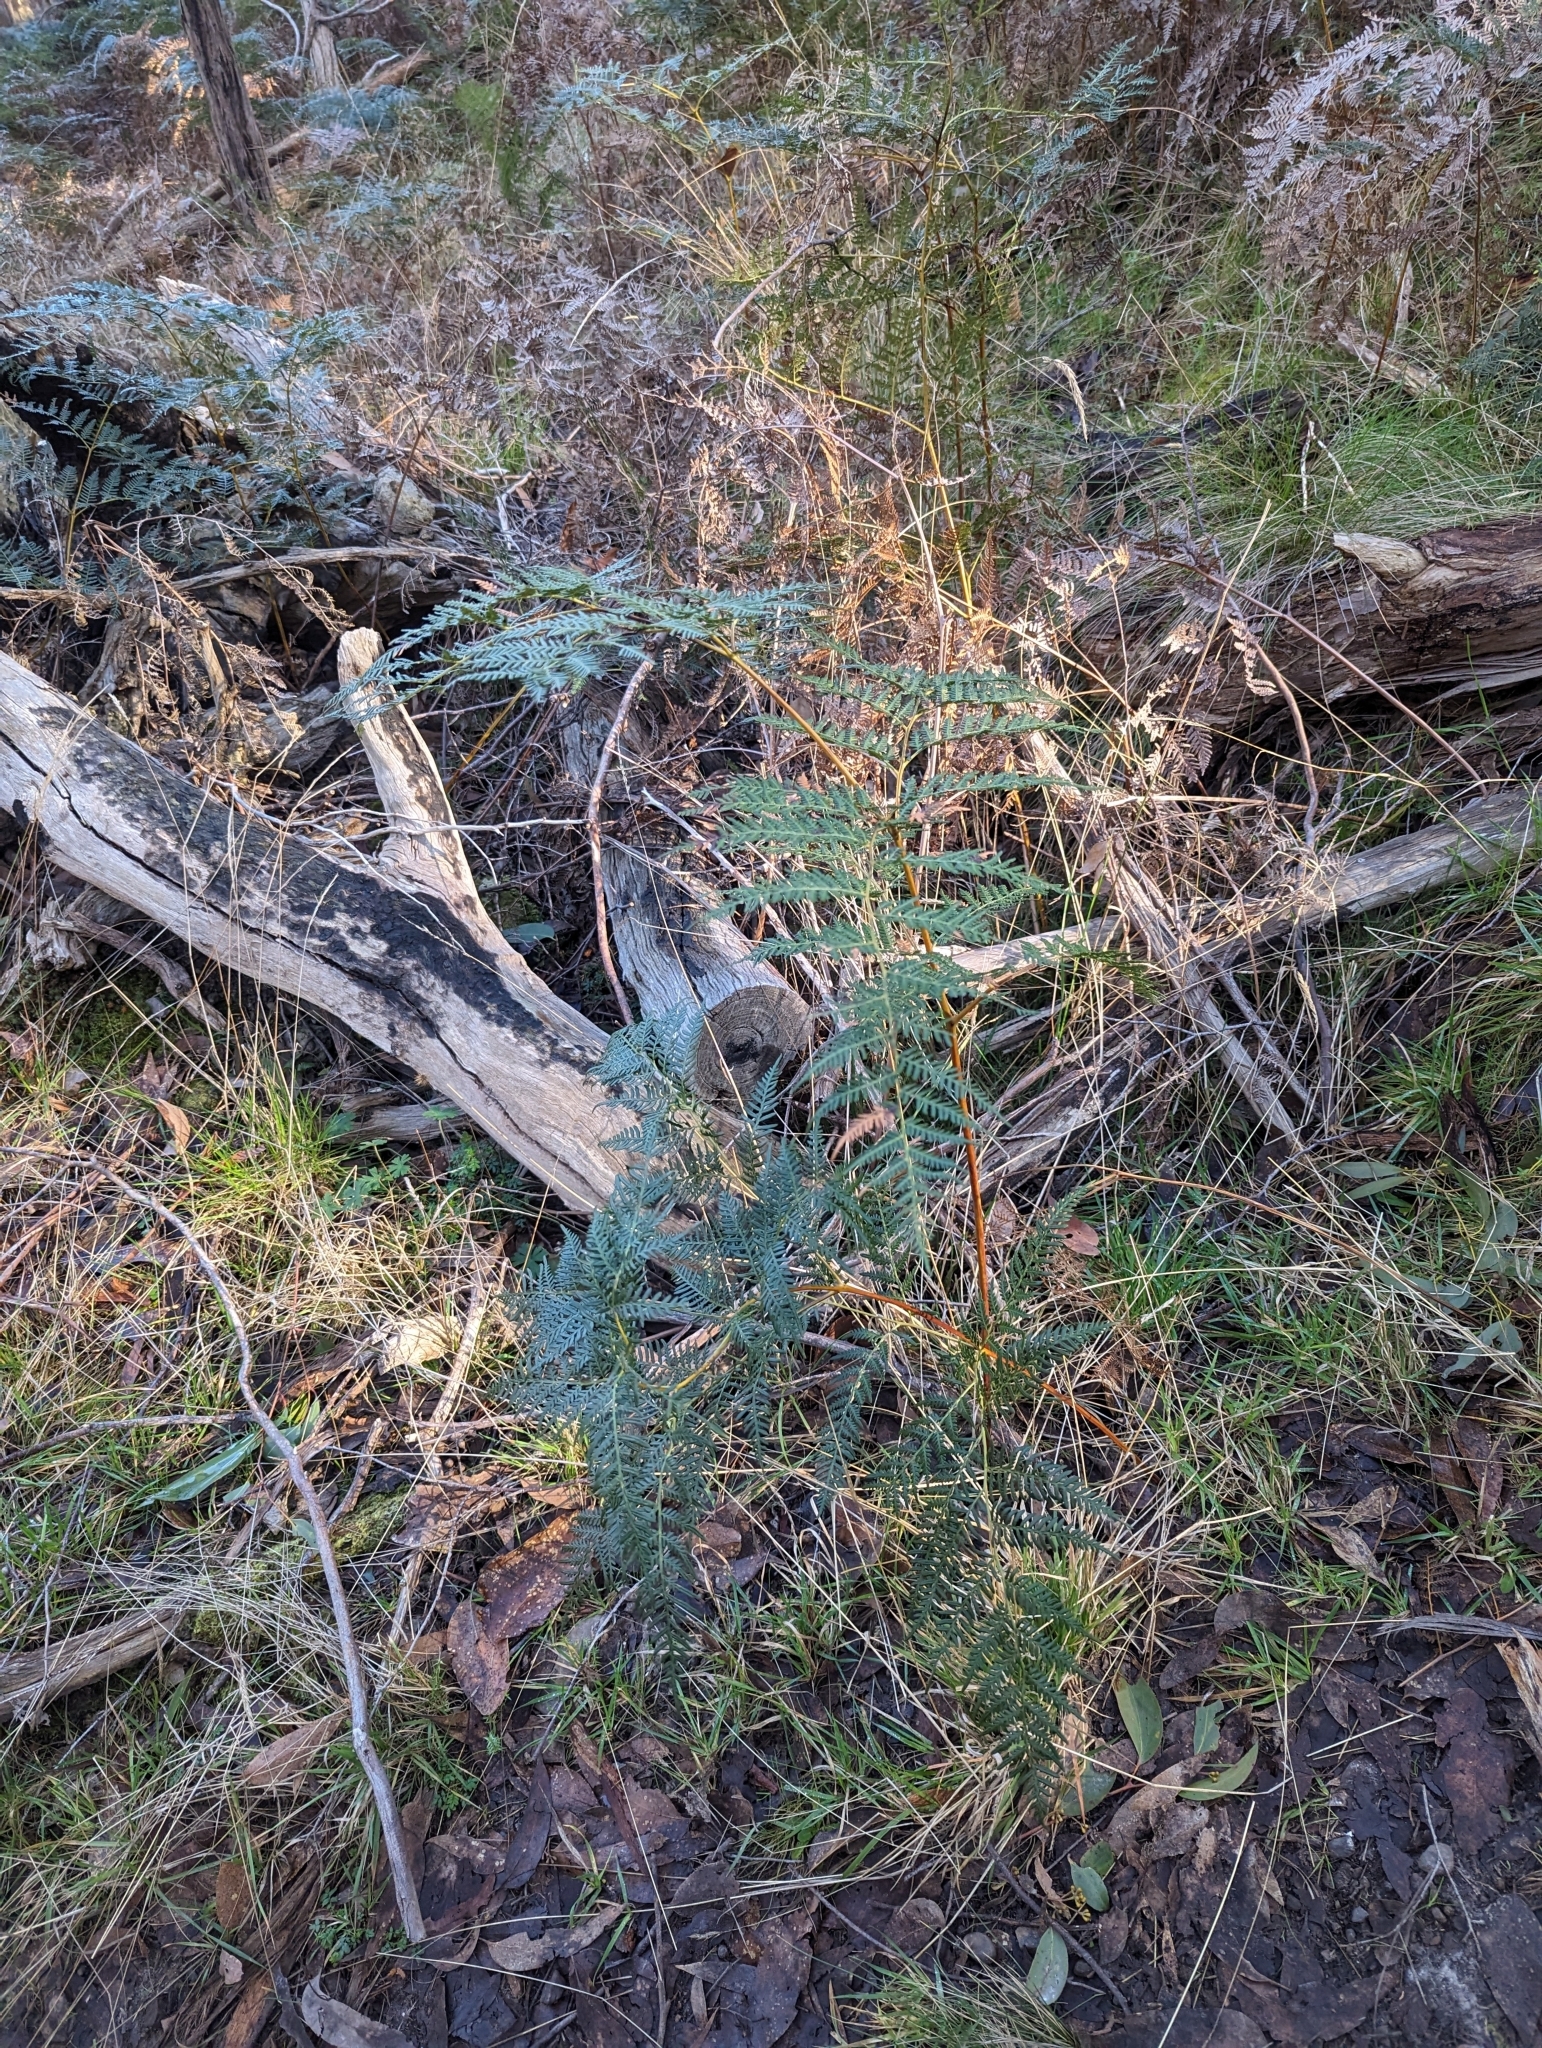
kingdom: Plantae
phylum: Tracheophyta
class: Polypodiopsida
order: Polypodiales
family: Dennstaedtiaceae
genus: Pteridium
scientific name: Pteridium esculentum
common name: Bracken fern
